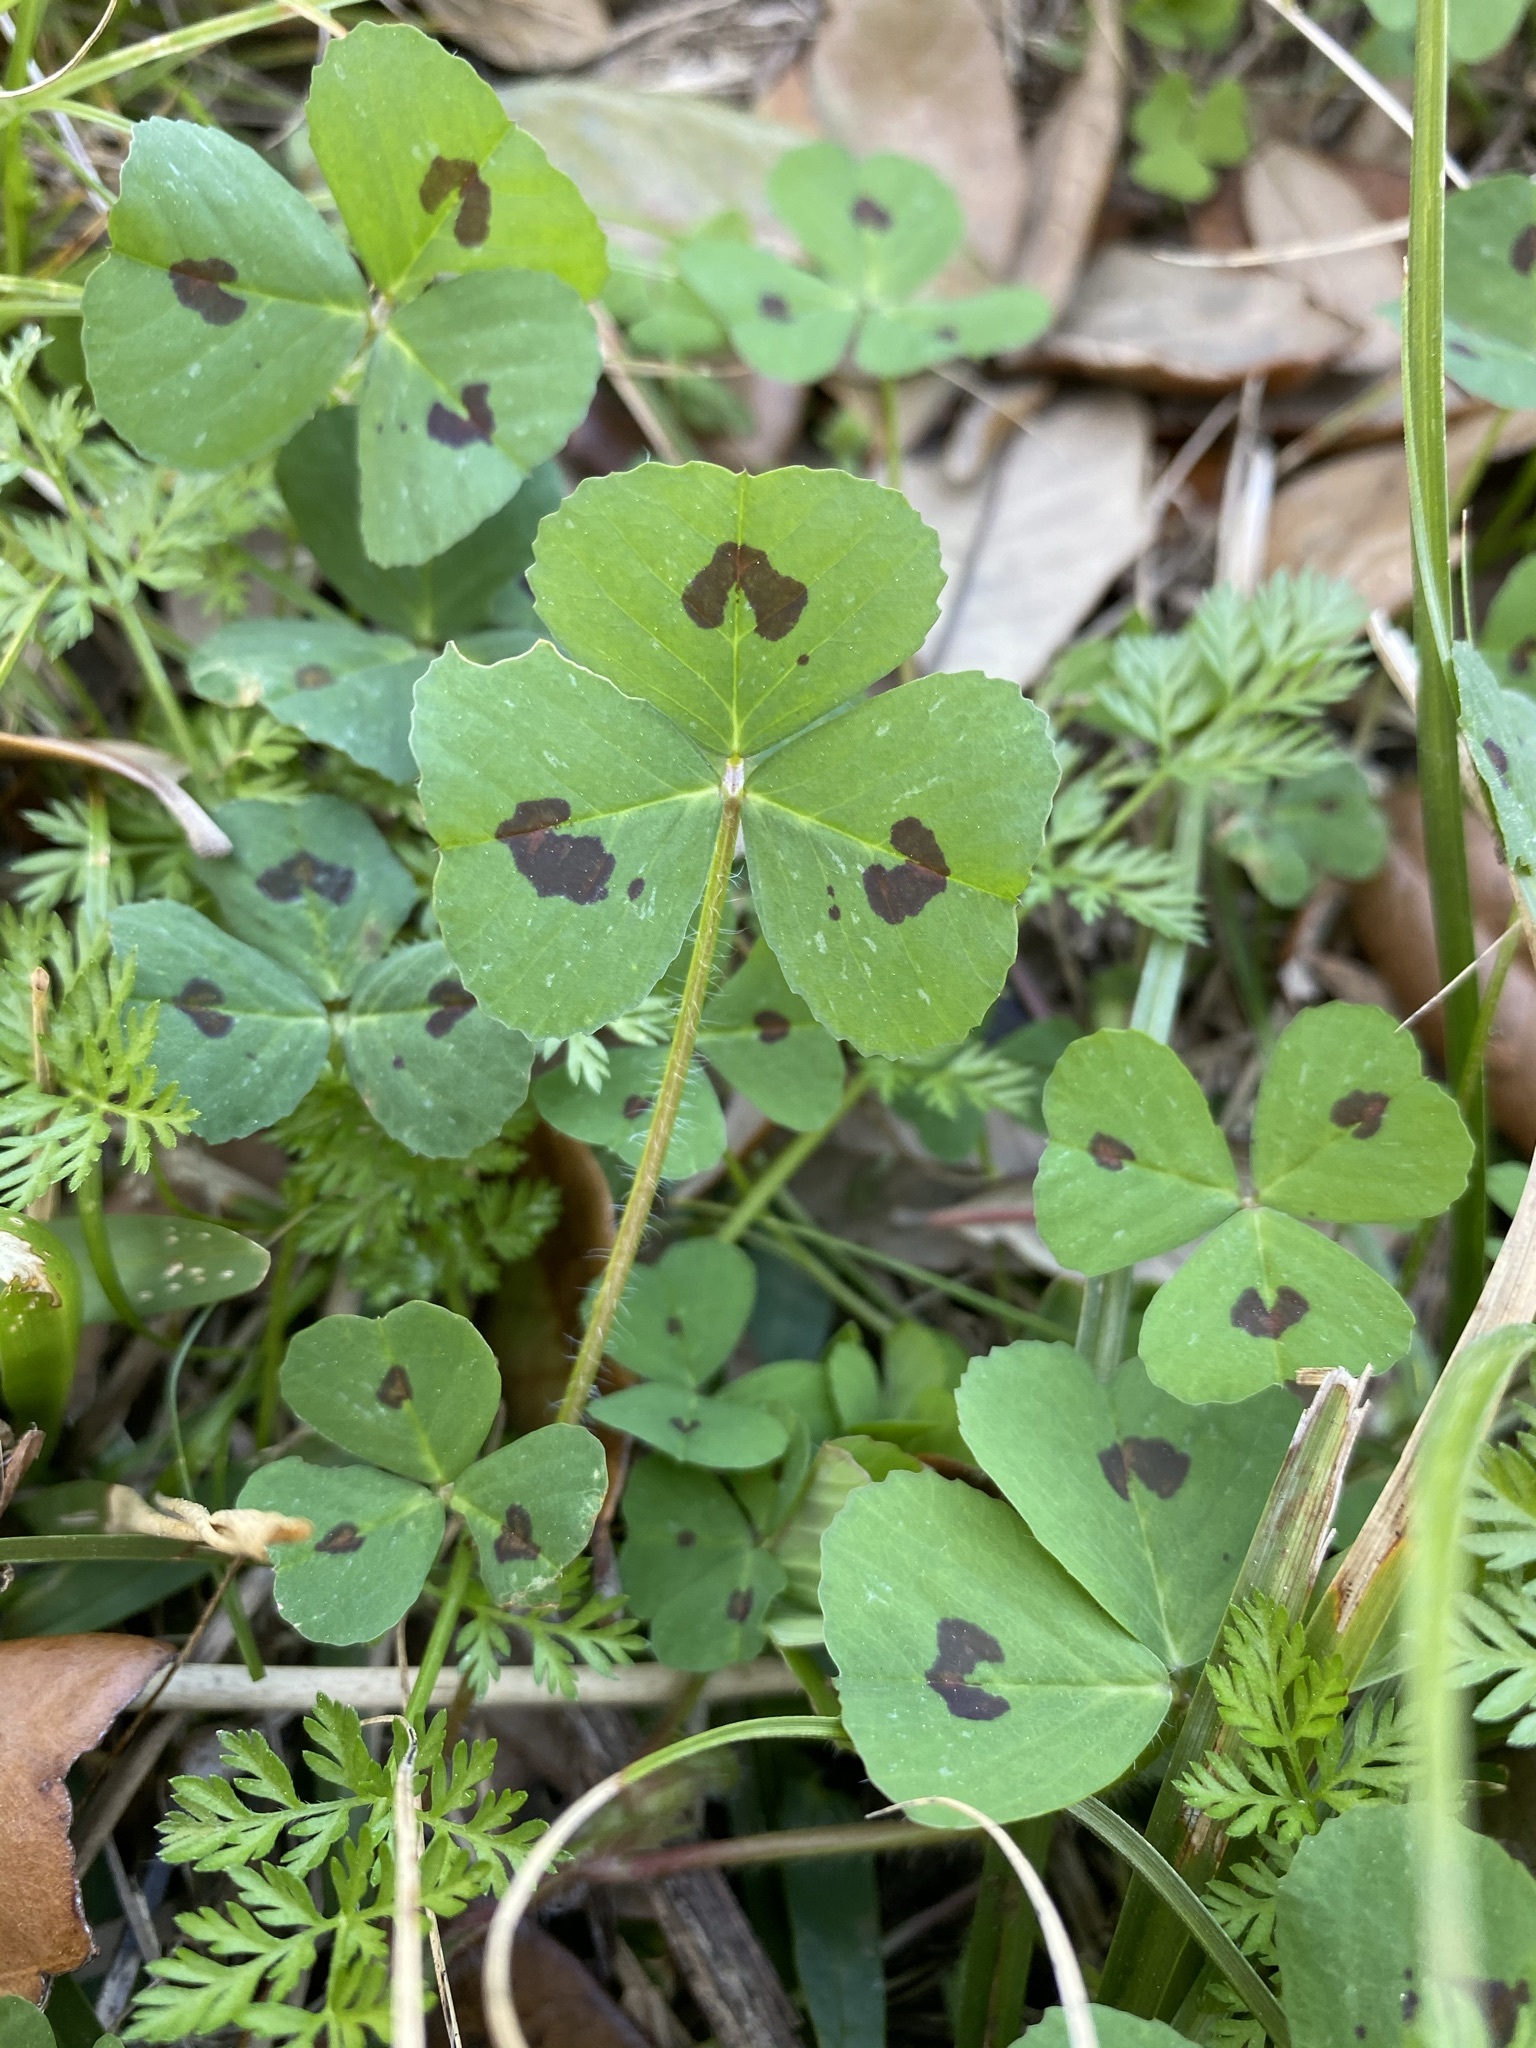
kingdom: Plantae
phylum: Tracheophyta
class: Magnoliopsida
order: Fabales
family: Fabaceae
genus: Medicago
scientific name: Medicago arabica
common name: Spotted medick
